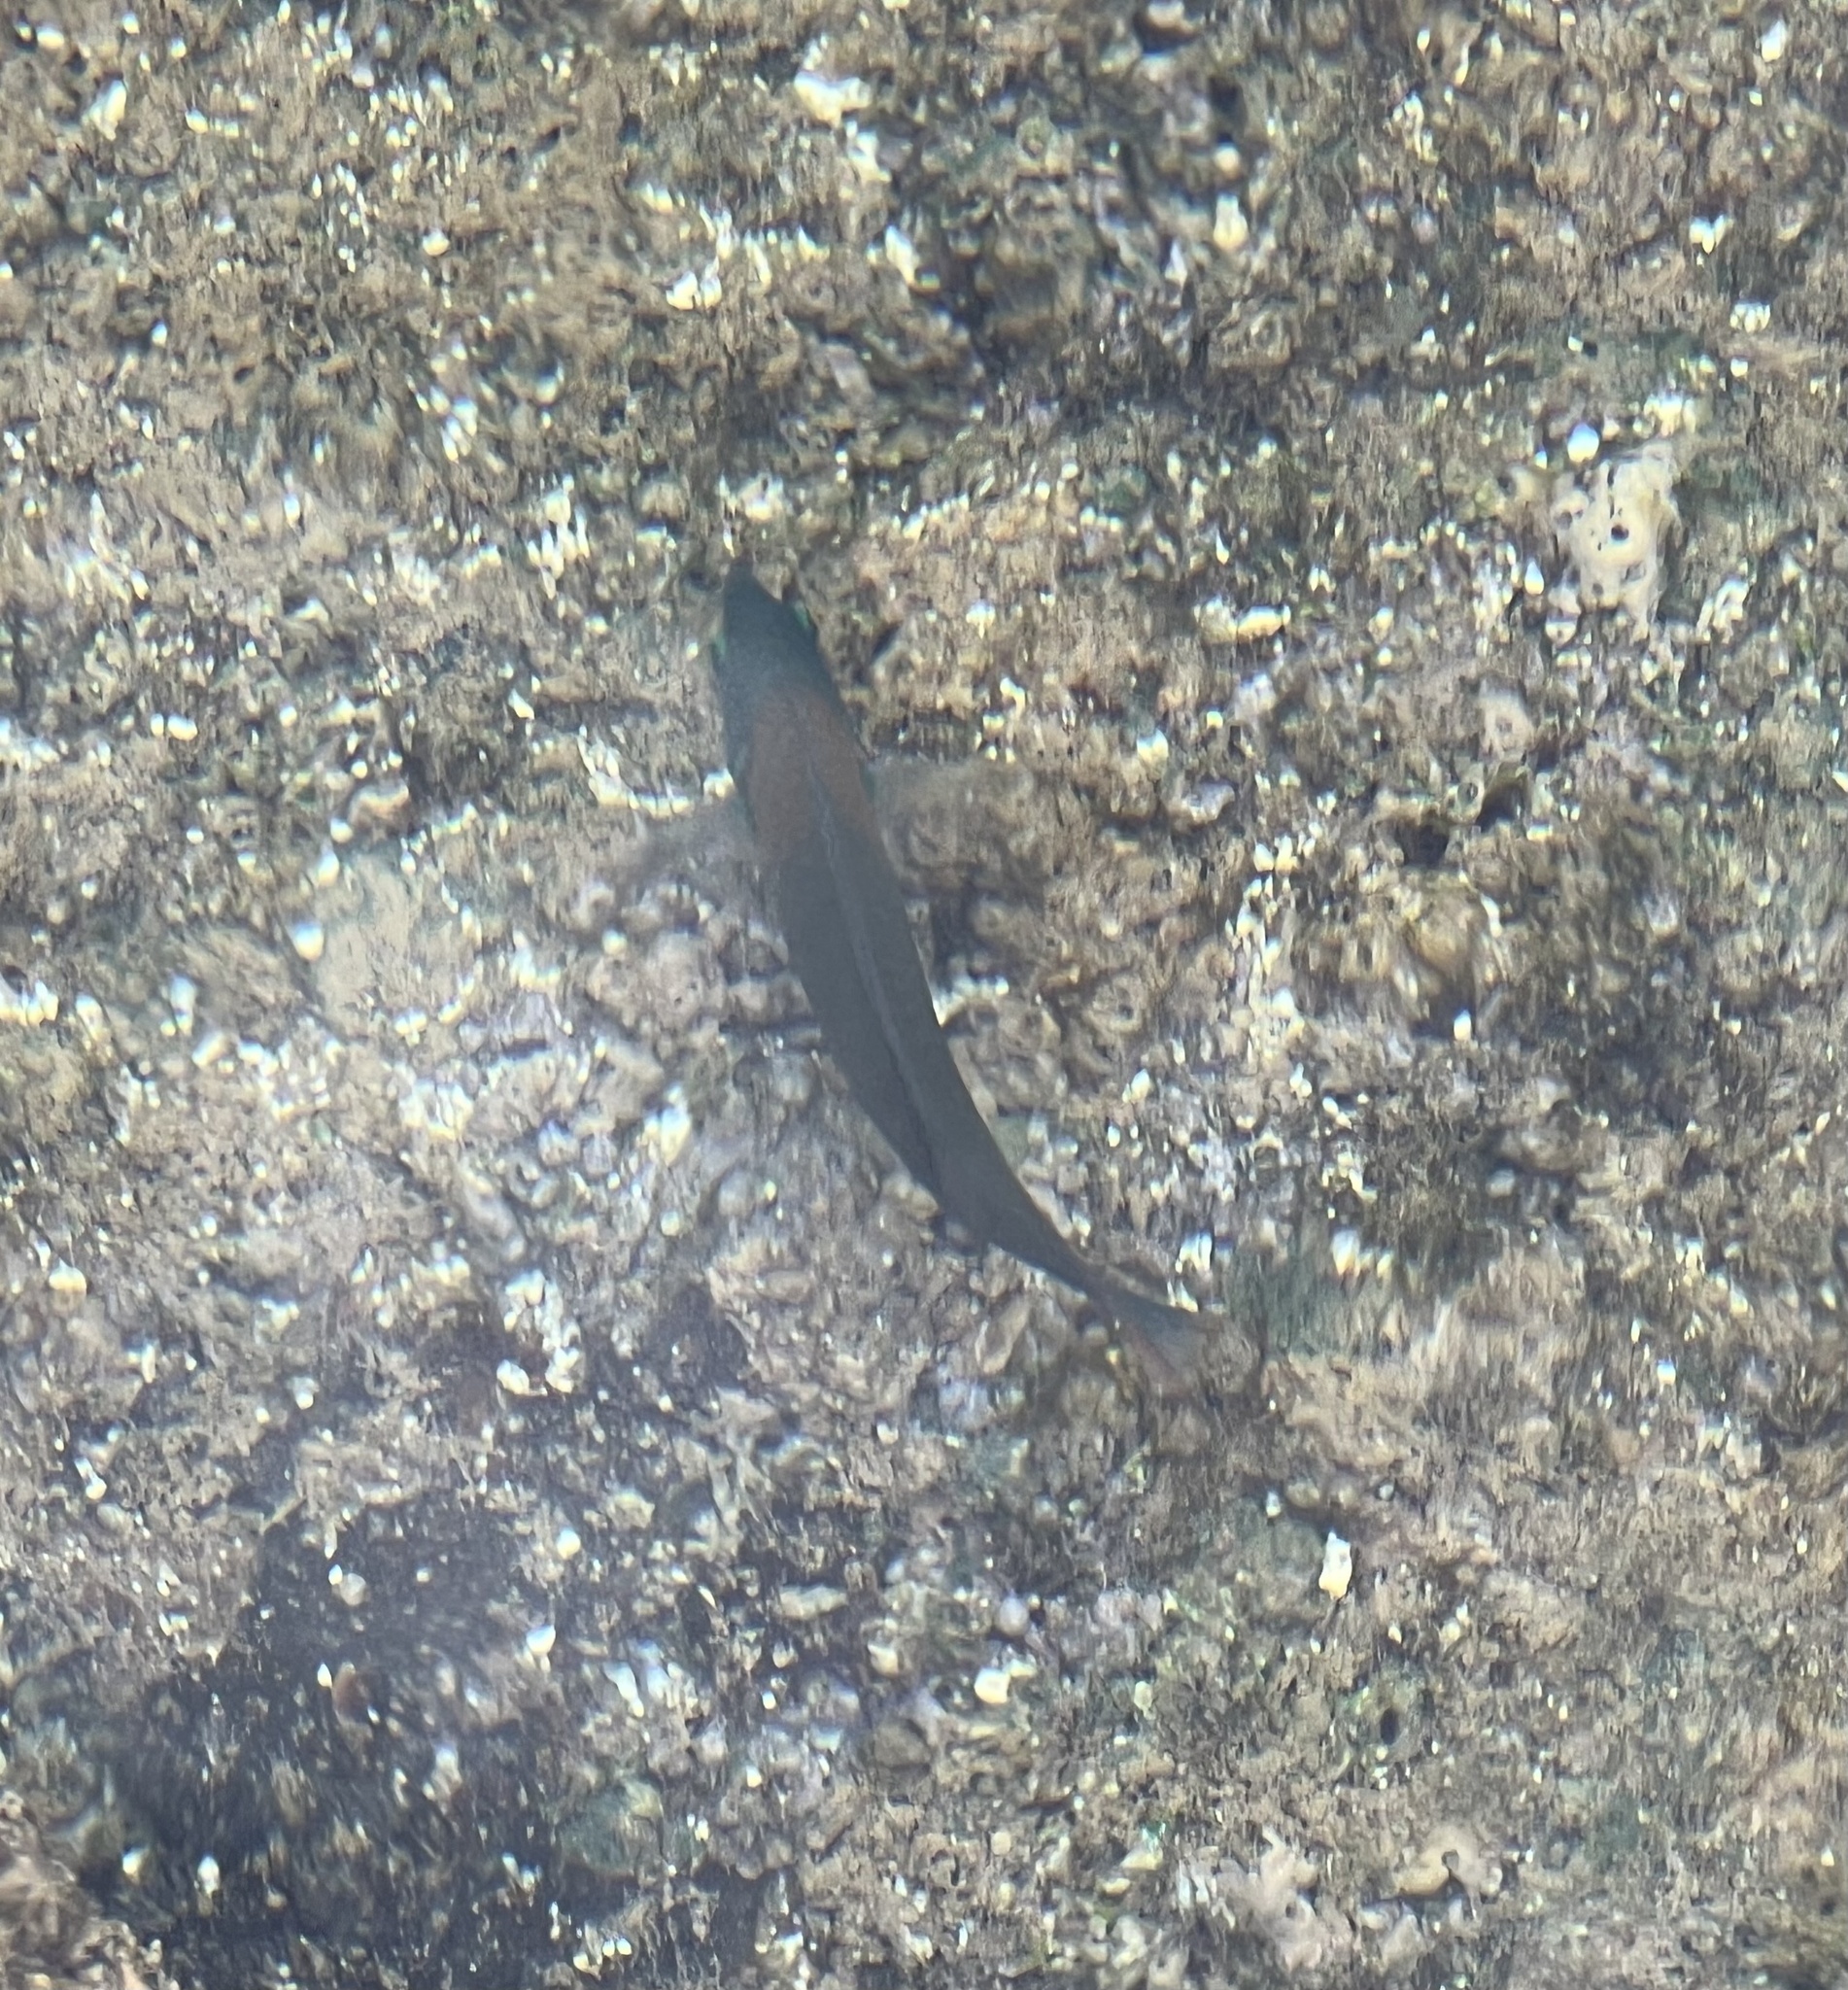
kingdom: Animalia
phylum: Chordata
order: Perciformes
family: Labridae
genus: Thalassoma
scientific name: Thalassoma duperrey
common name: Saddle wrasse
